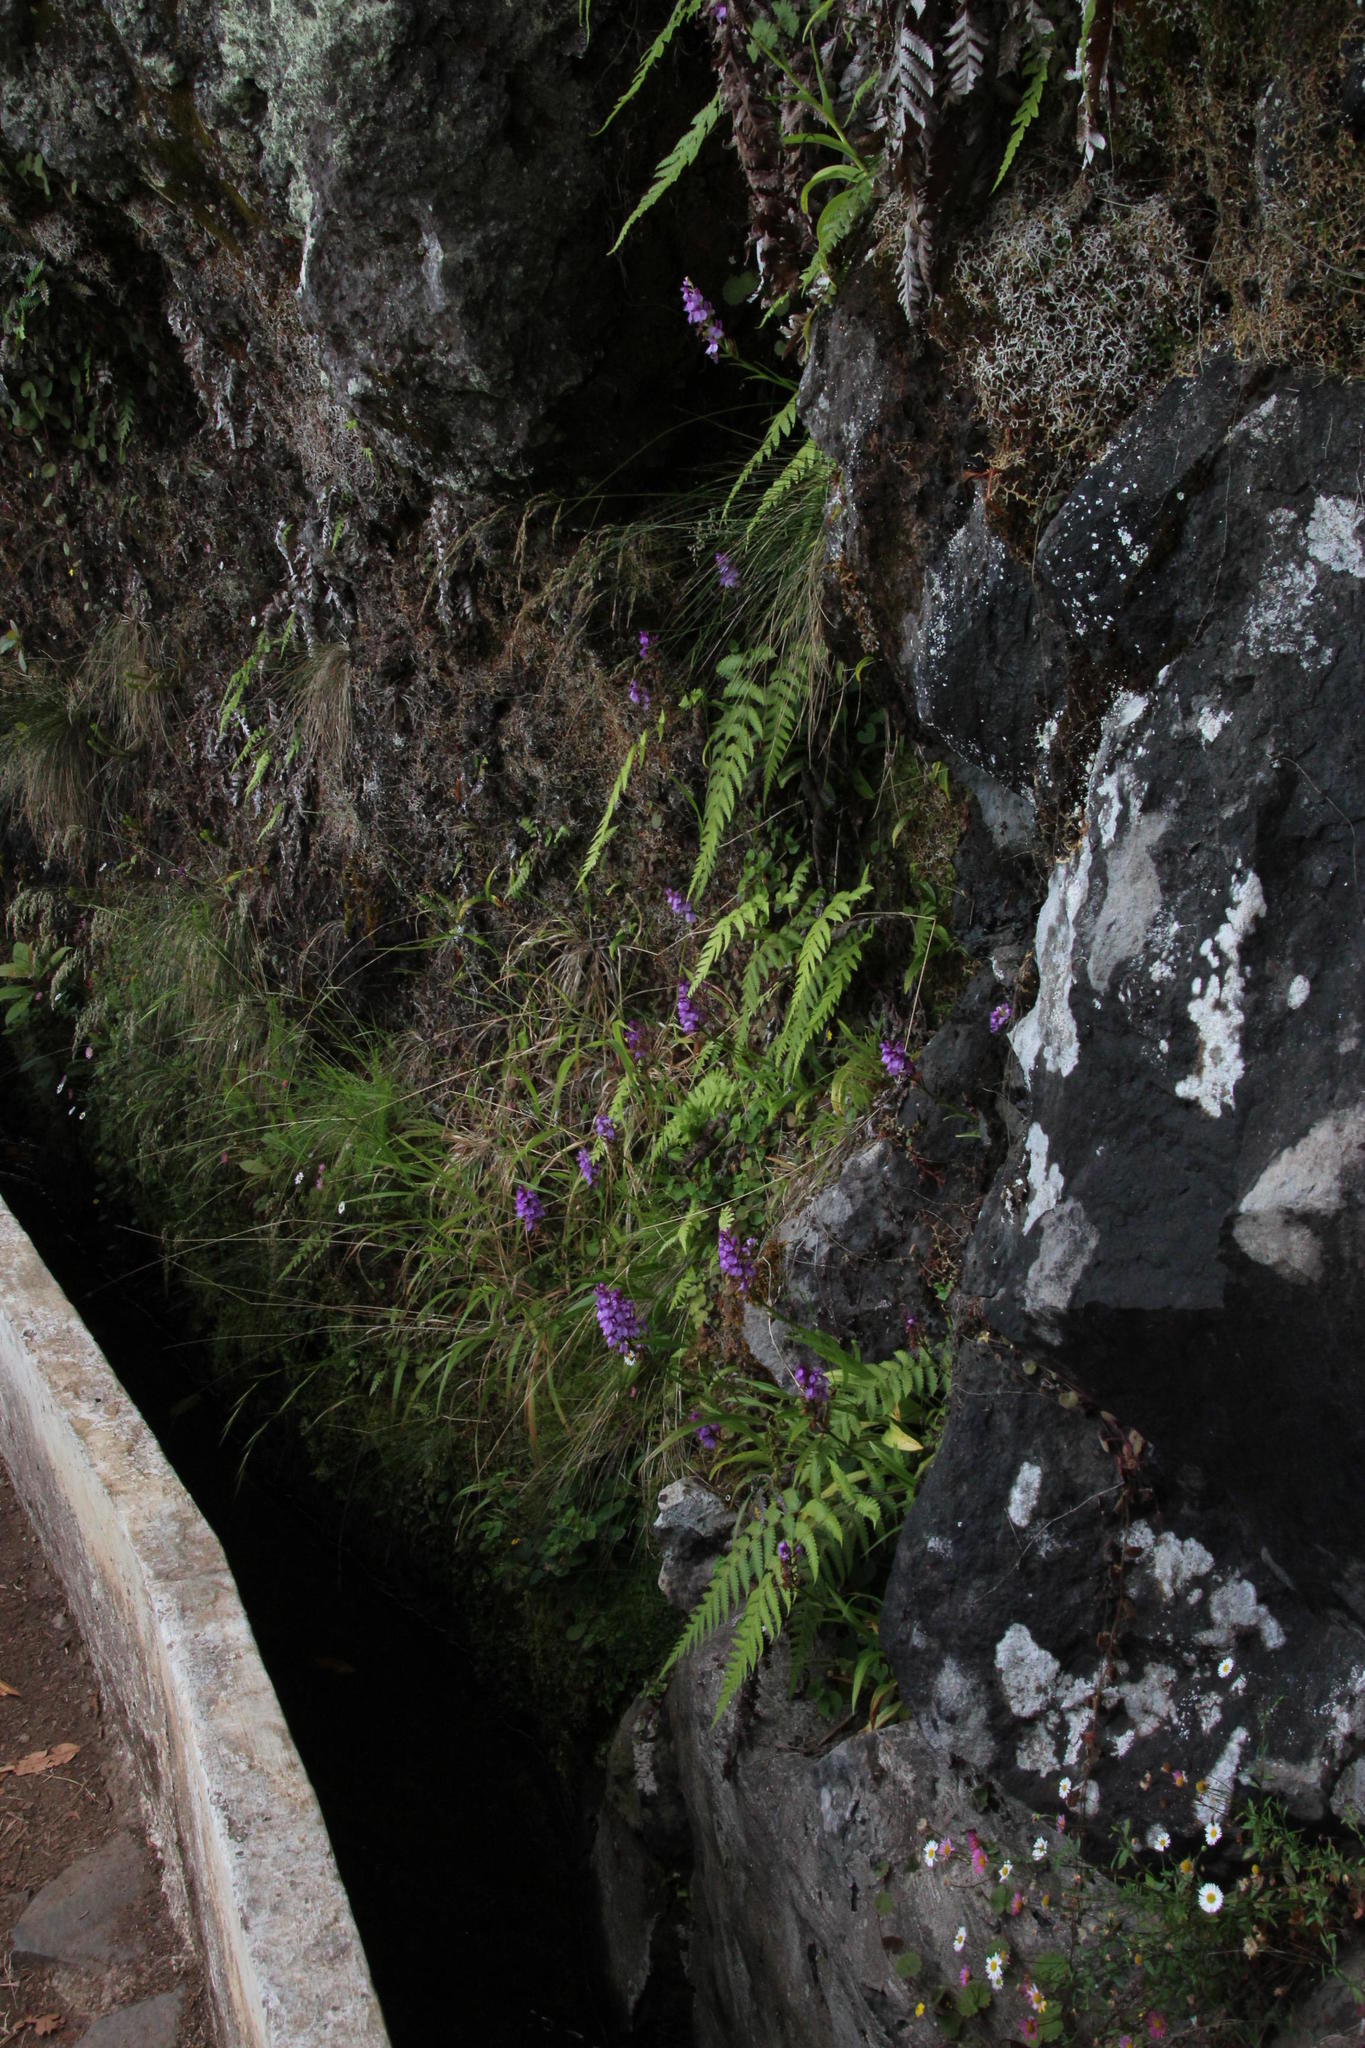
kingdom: Plantae
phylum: Tracheophyta
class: Liliopsida
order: Asparagales
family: Orchidaceae
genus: Dactylorhiza
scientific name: Dactylorhiza foliosa
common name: Richly-leaved dactylorhiza
